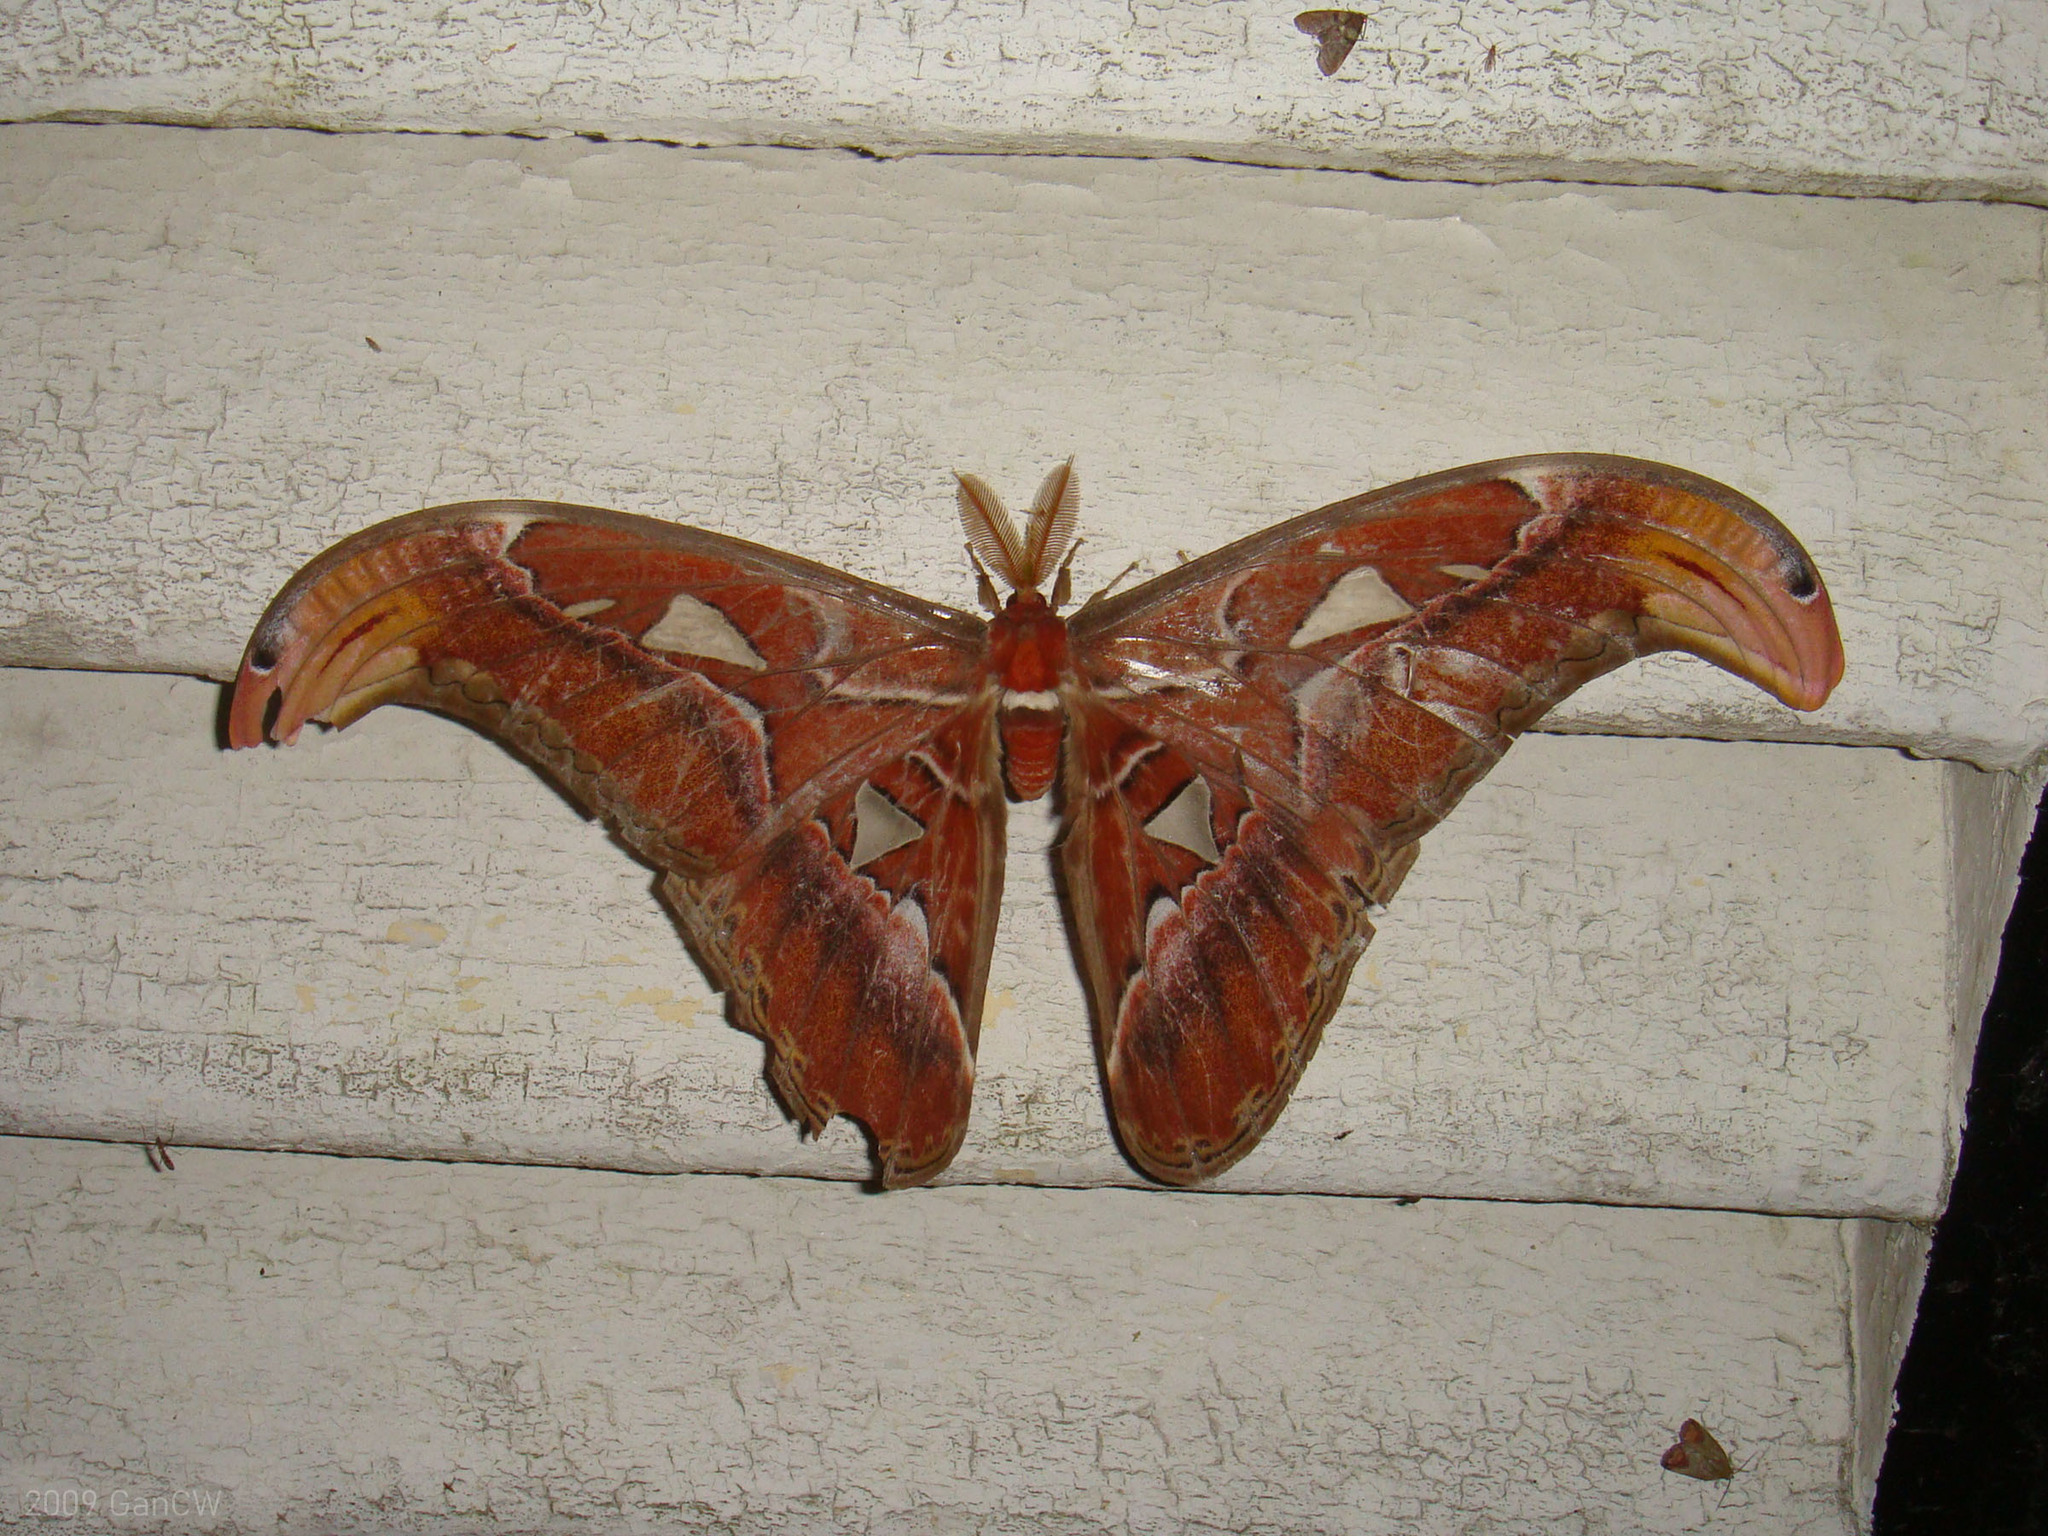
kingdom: Animalia
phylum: Arthropoda
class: Insecta
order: Lepidoptera
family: Saturniidae
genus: Attacus
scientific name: Attacus atlas
